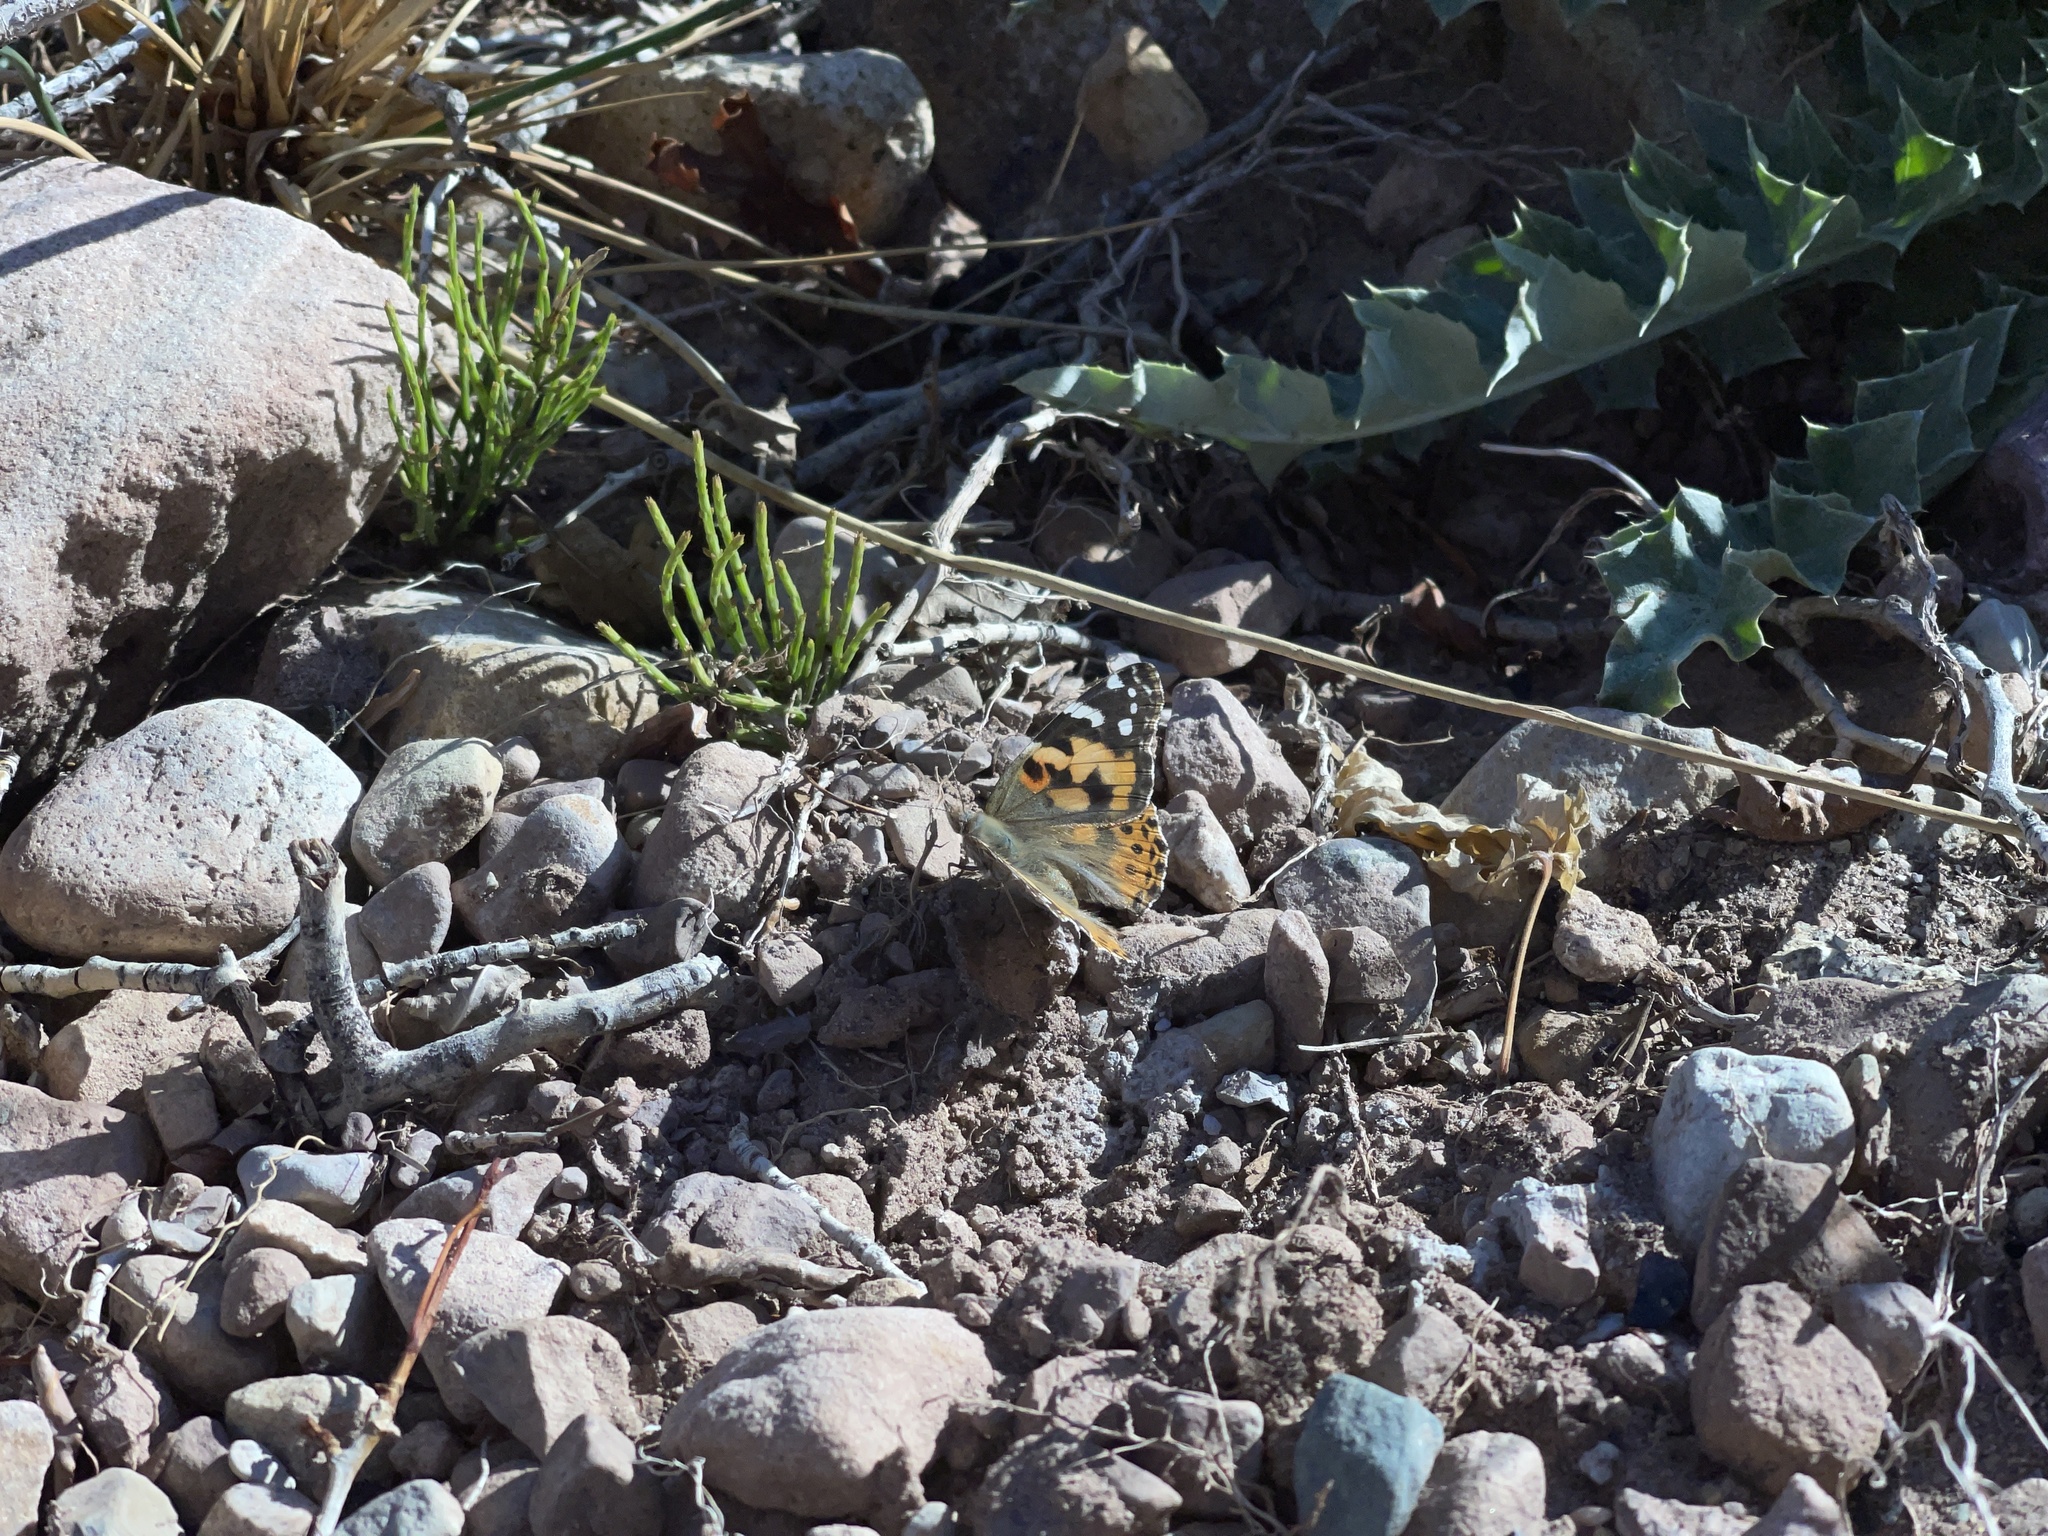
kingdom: Animalia
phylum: Arthropoda
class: Insecta
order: Lepidoptera
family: Nymphalidae
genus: Vanessa
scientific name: Vanessa cardui
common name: Painted lady
